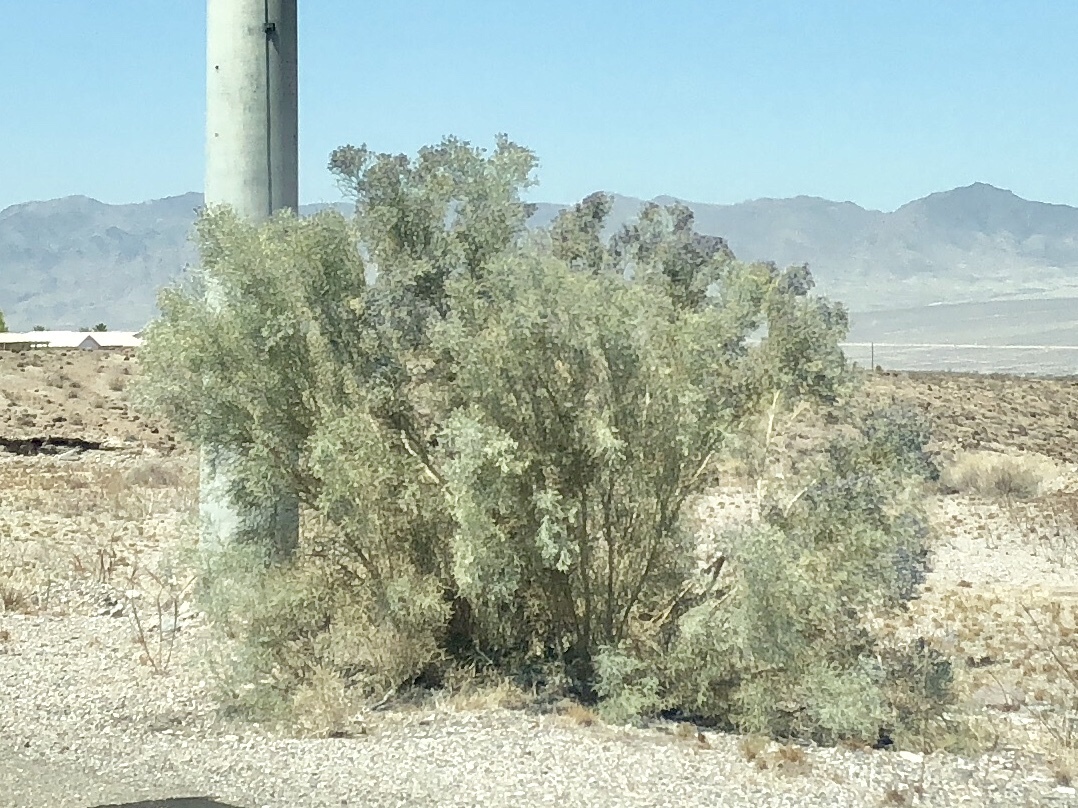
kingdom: Plantae
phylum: Tracheophyta
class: Magnoliopsida
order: Fabales
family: Fabaceae
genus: Psorothamnus
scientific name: Psorothamnus spinosus
